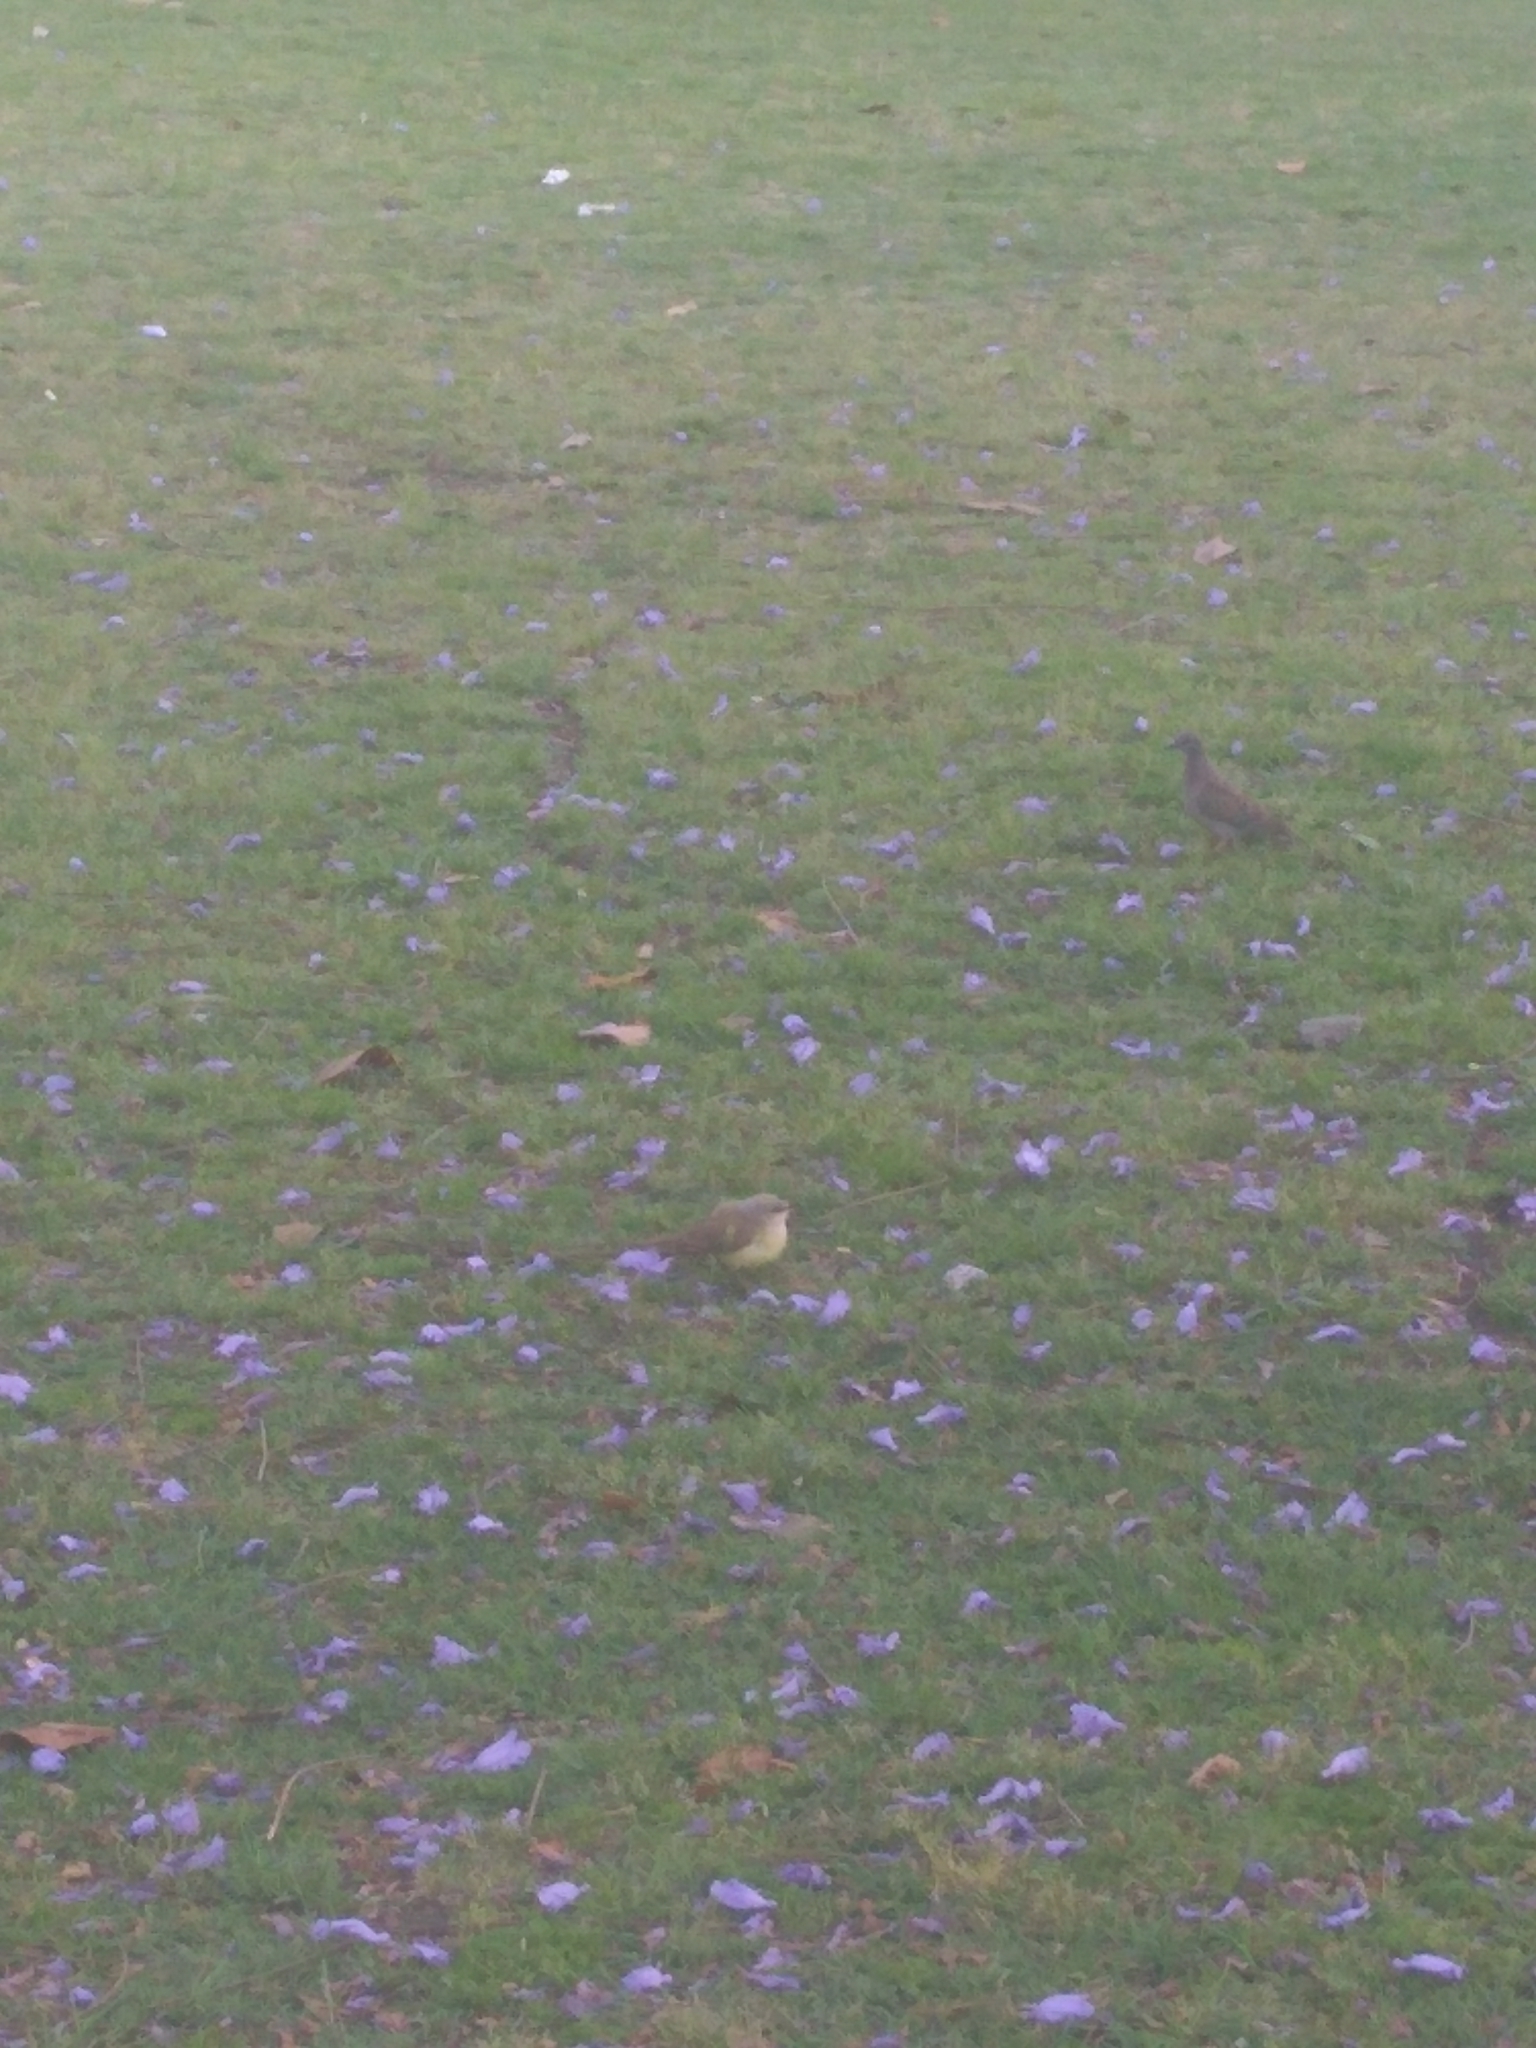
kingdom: Animalia
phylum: Chordata
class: Aves
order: Passeriformes
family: Tyrannidae
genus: Machetornis
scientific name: Machetornis rixosa
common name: Cattle tyrant
